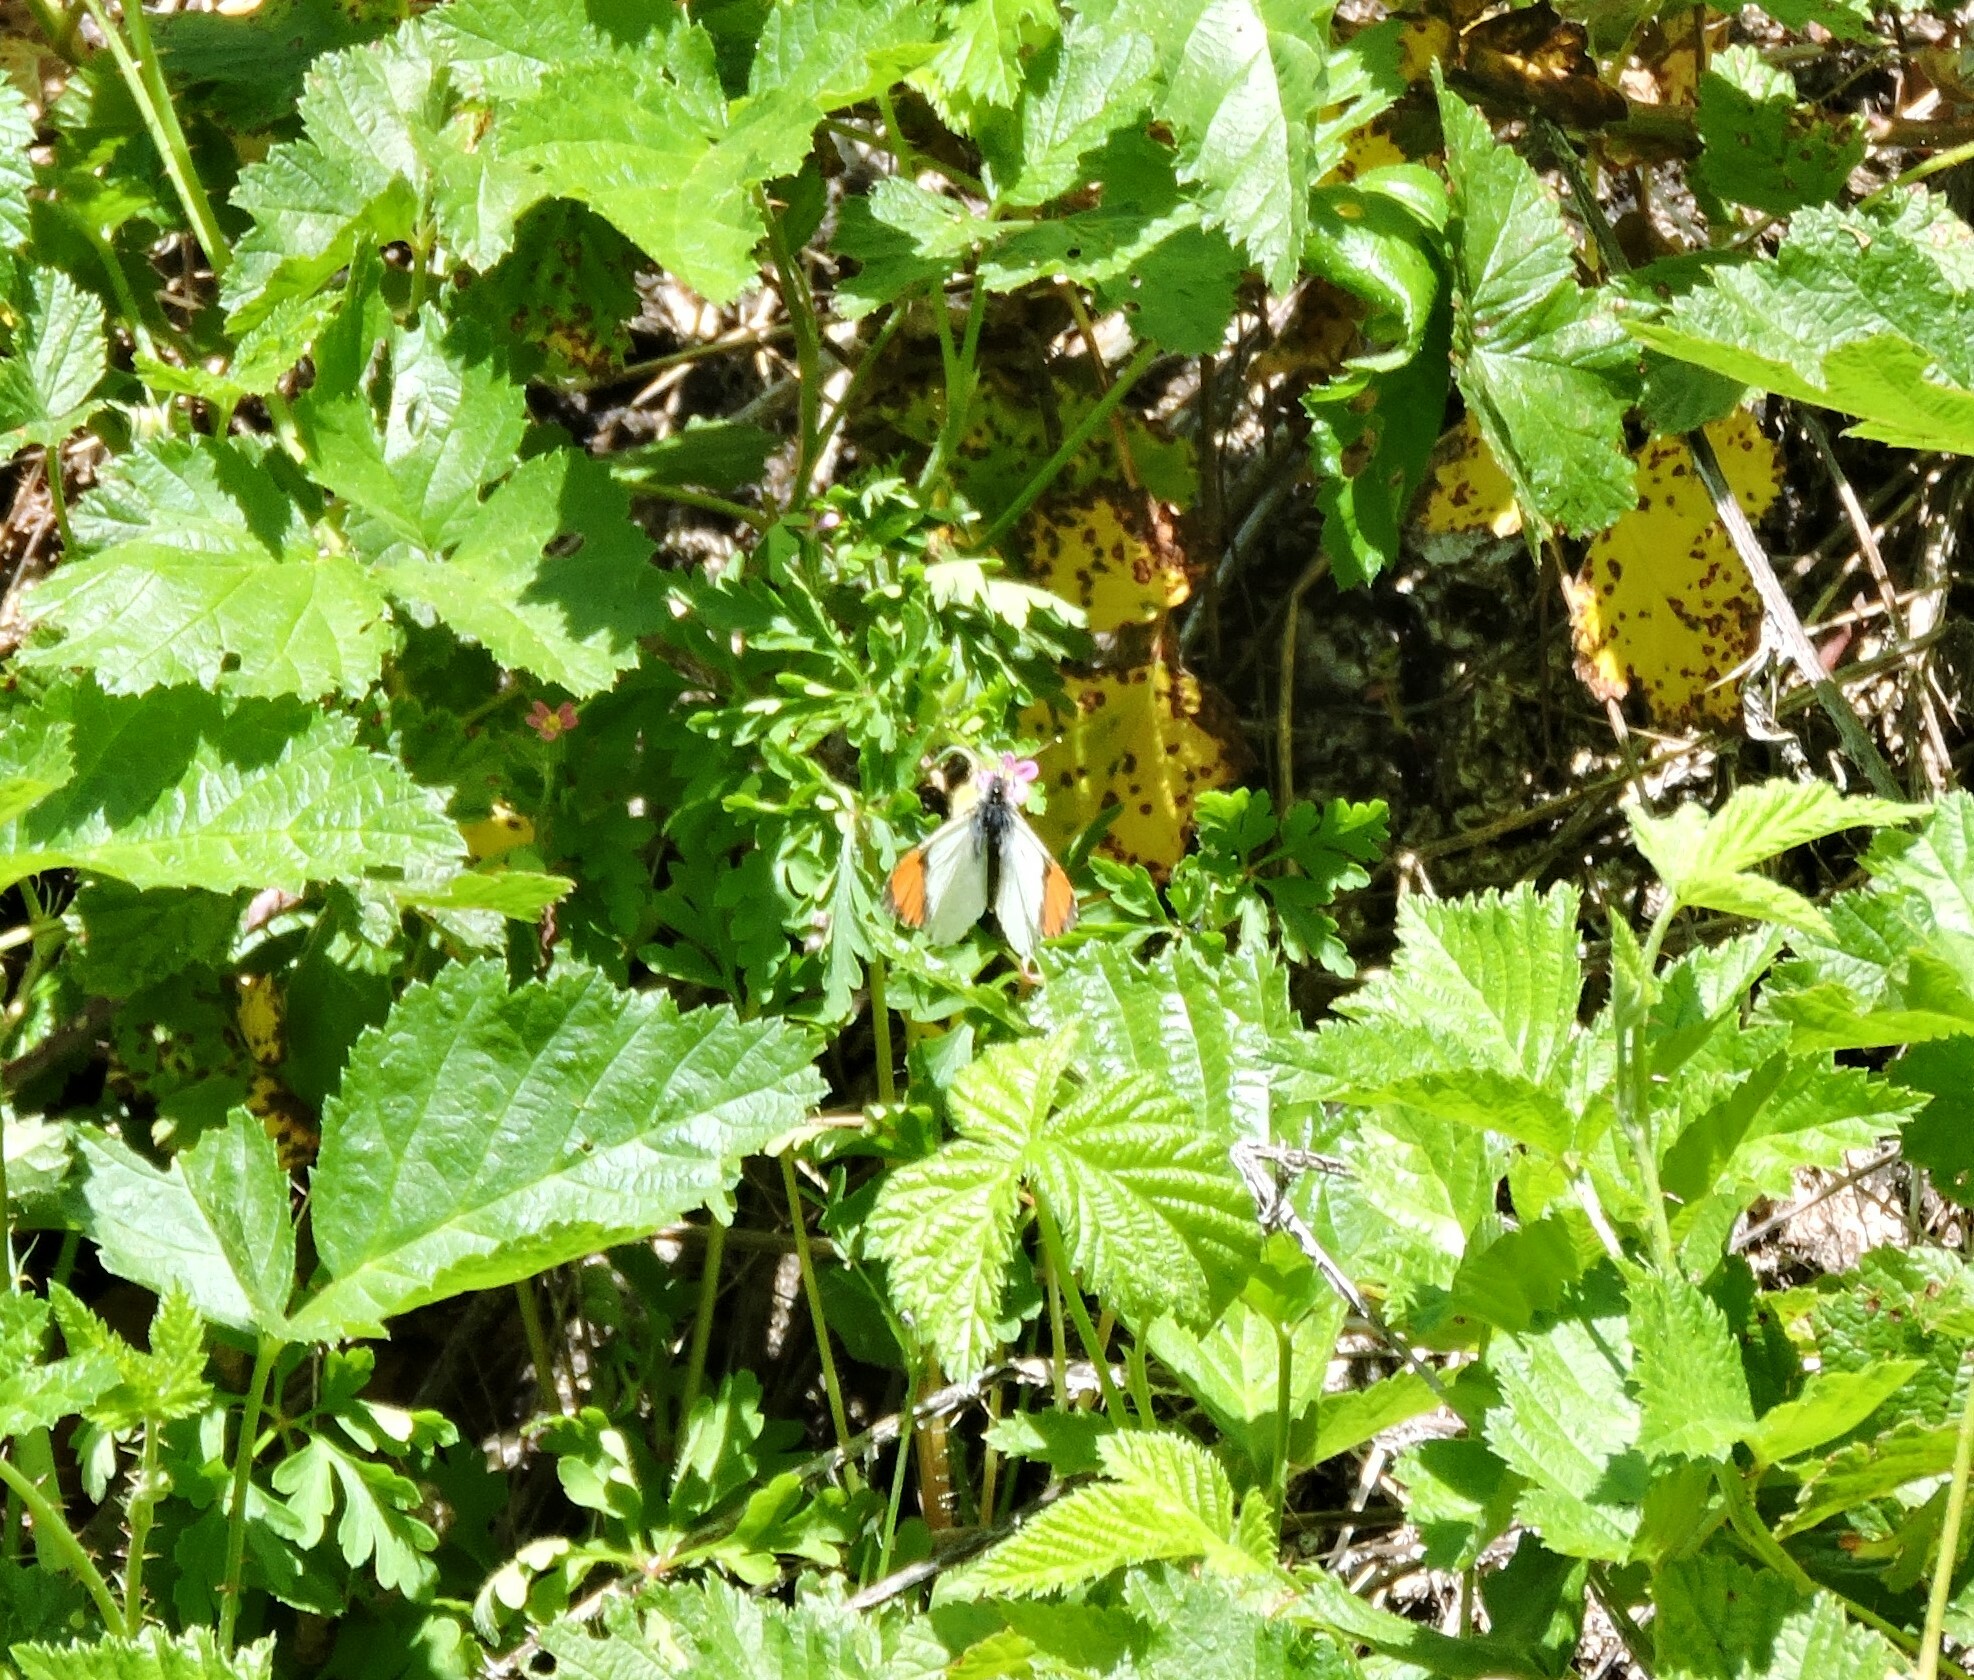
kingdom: Animalia
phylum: Arthropoda
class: Insecta
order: Lepidoptera
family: Pieridae
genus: Anthocharis
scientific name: Anthocharis sara
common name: Sara's orangetip
